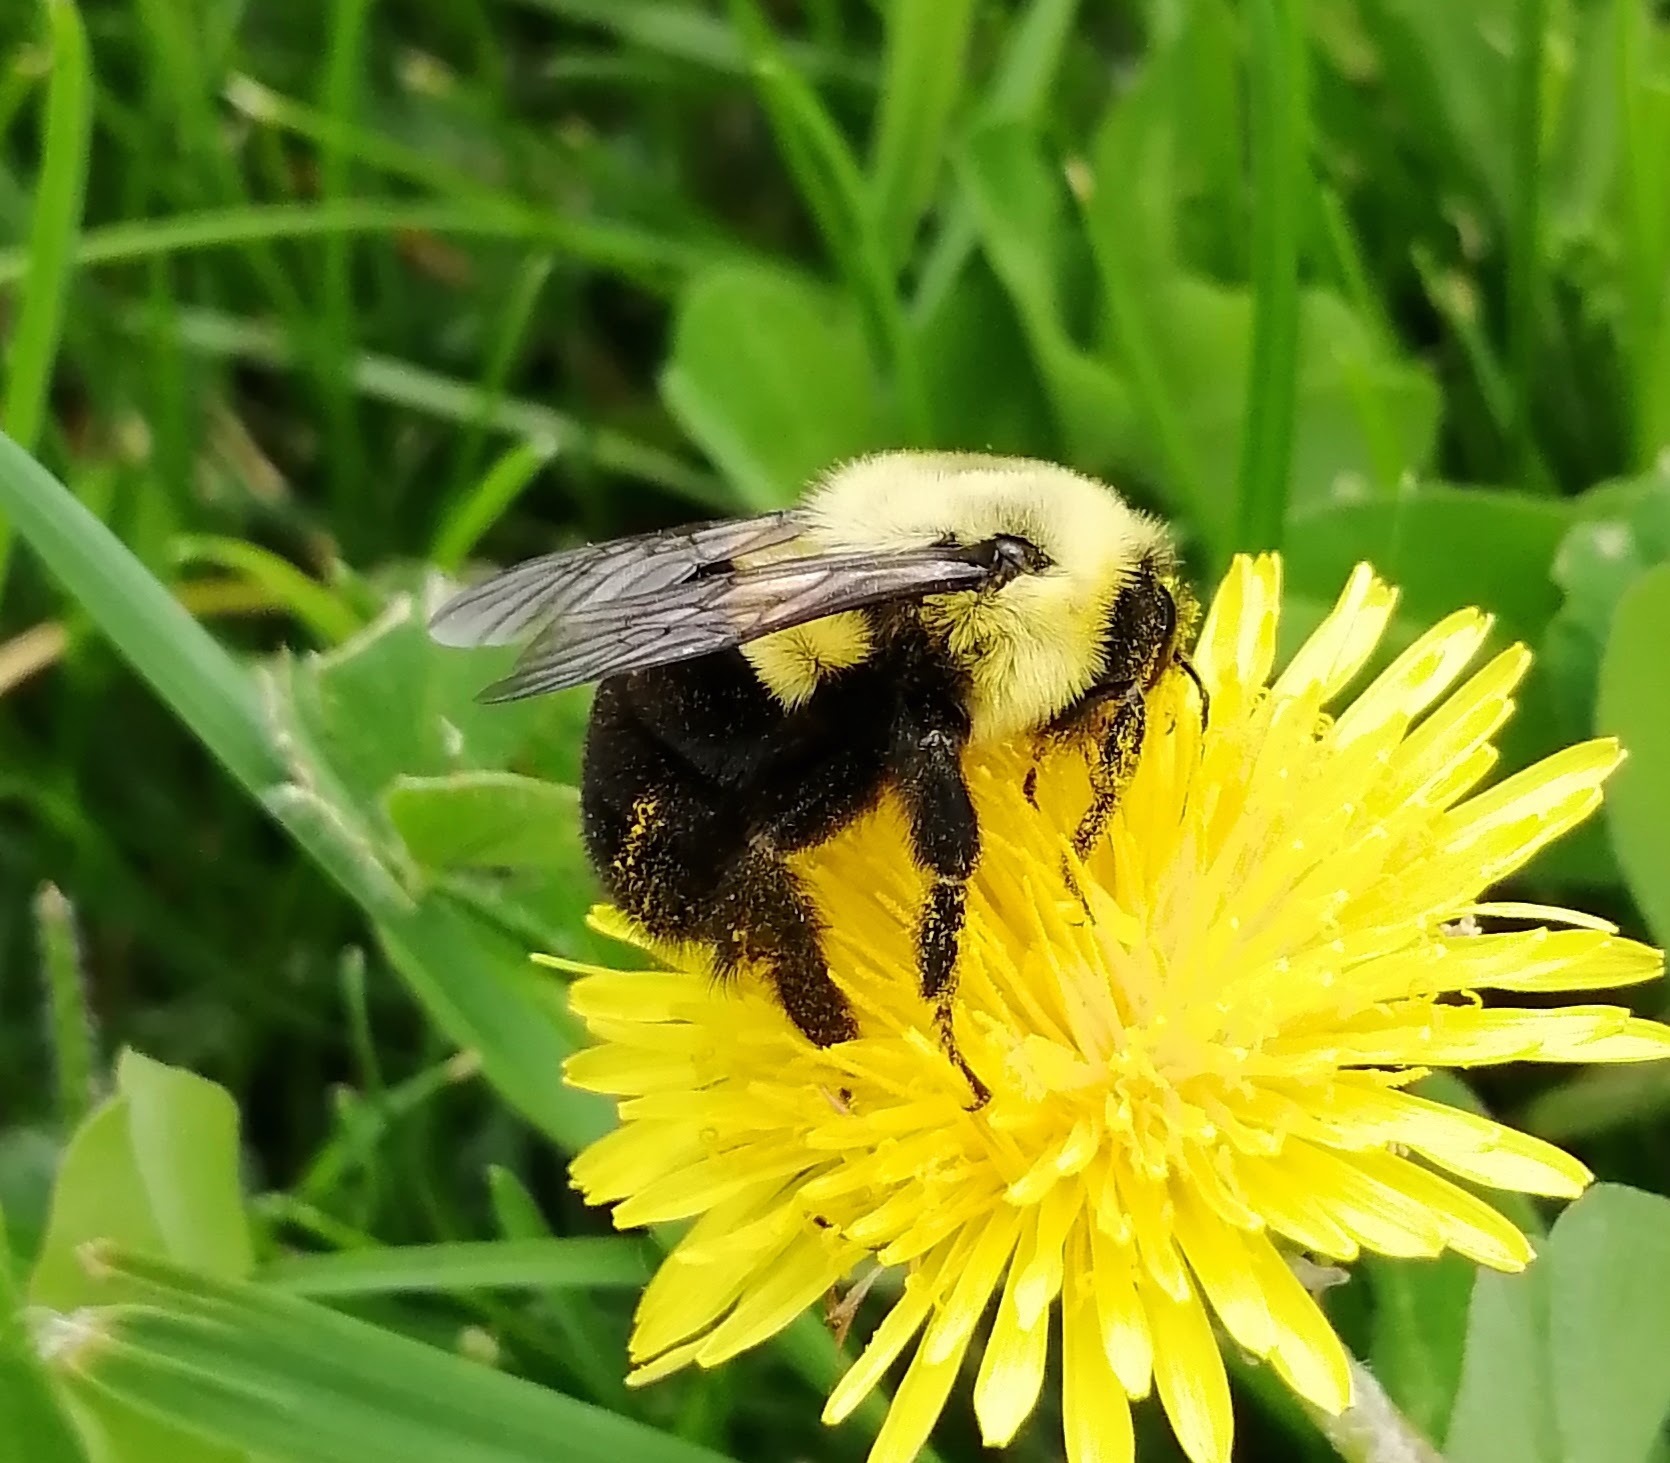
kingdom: Animalia
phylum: Arthropoda
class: Insecta
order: Hymenoptera
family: Apidae
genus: Bombus
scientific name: Bombus impatiens
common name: Common eastern bumble bee
